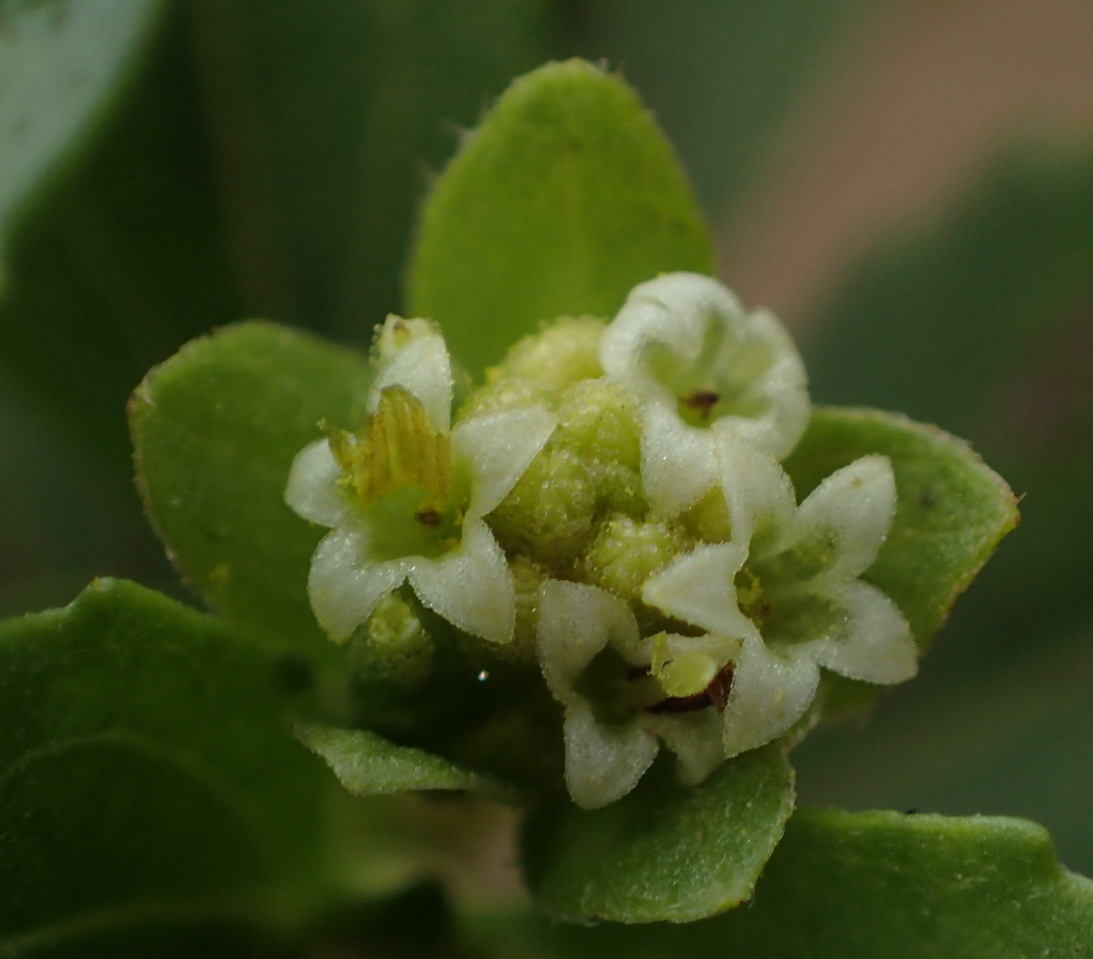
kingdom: Plantae
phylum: Tracheophyta
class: Magnoliopsida
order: Asterales
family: Asteraceae
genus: Acanthospermum
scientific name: Acanthospermum australe
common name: Paraguayan starbur
